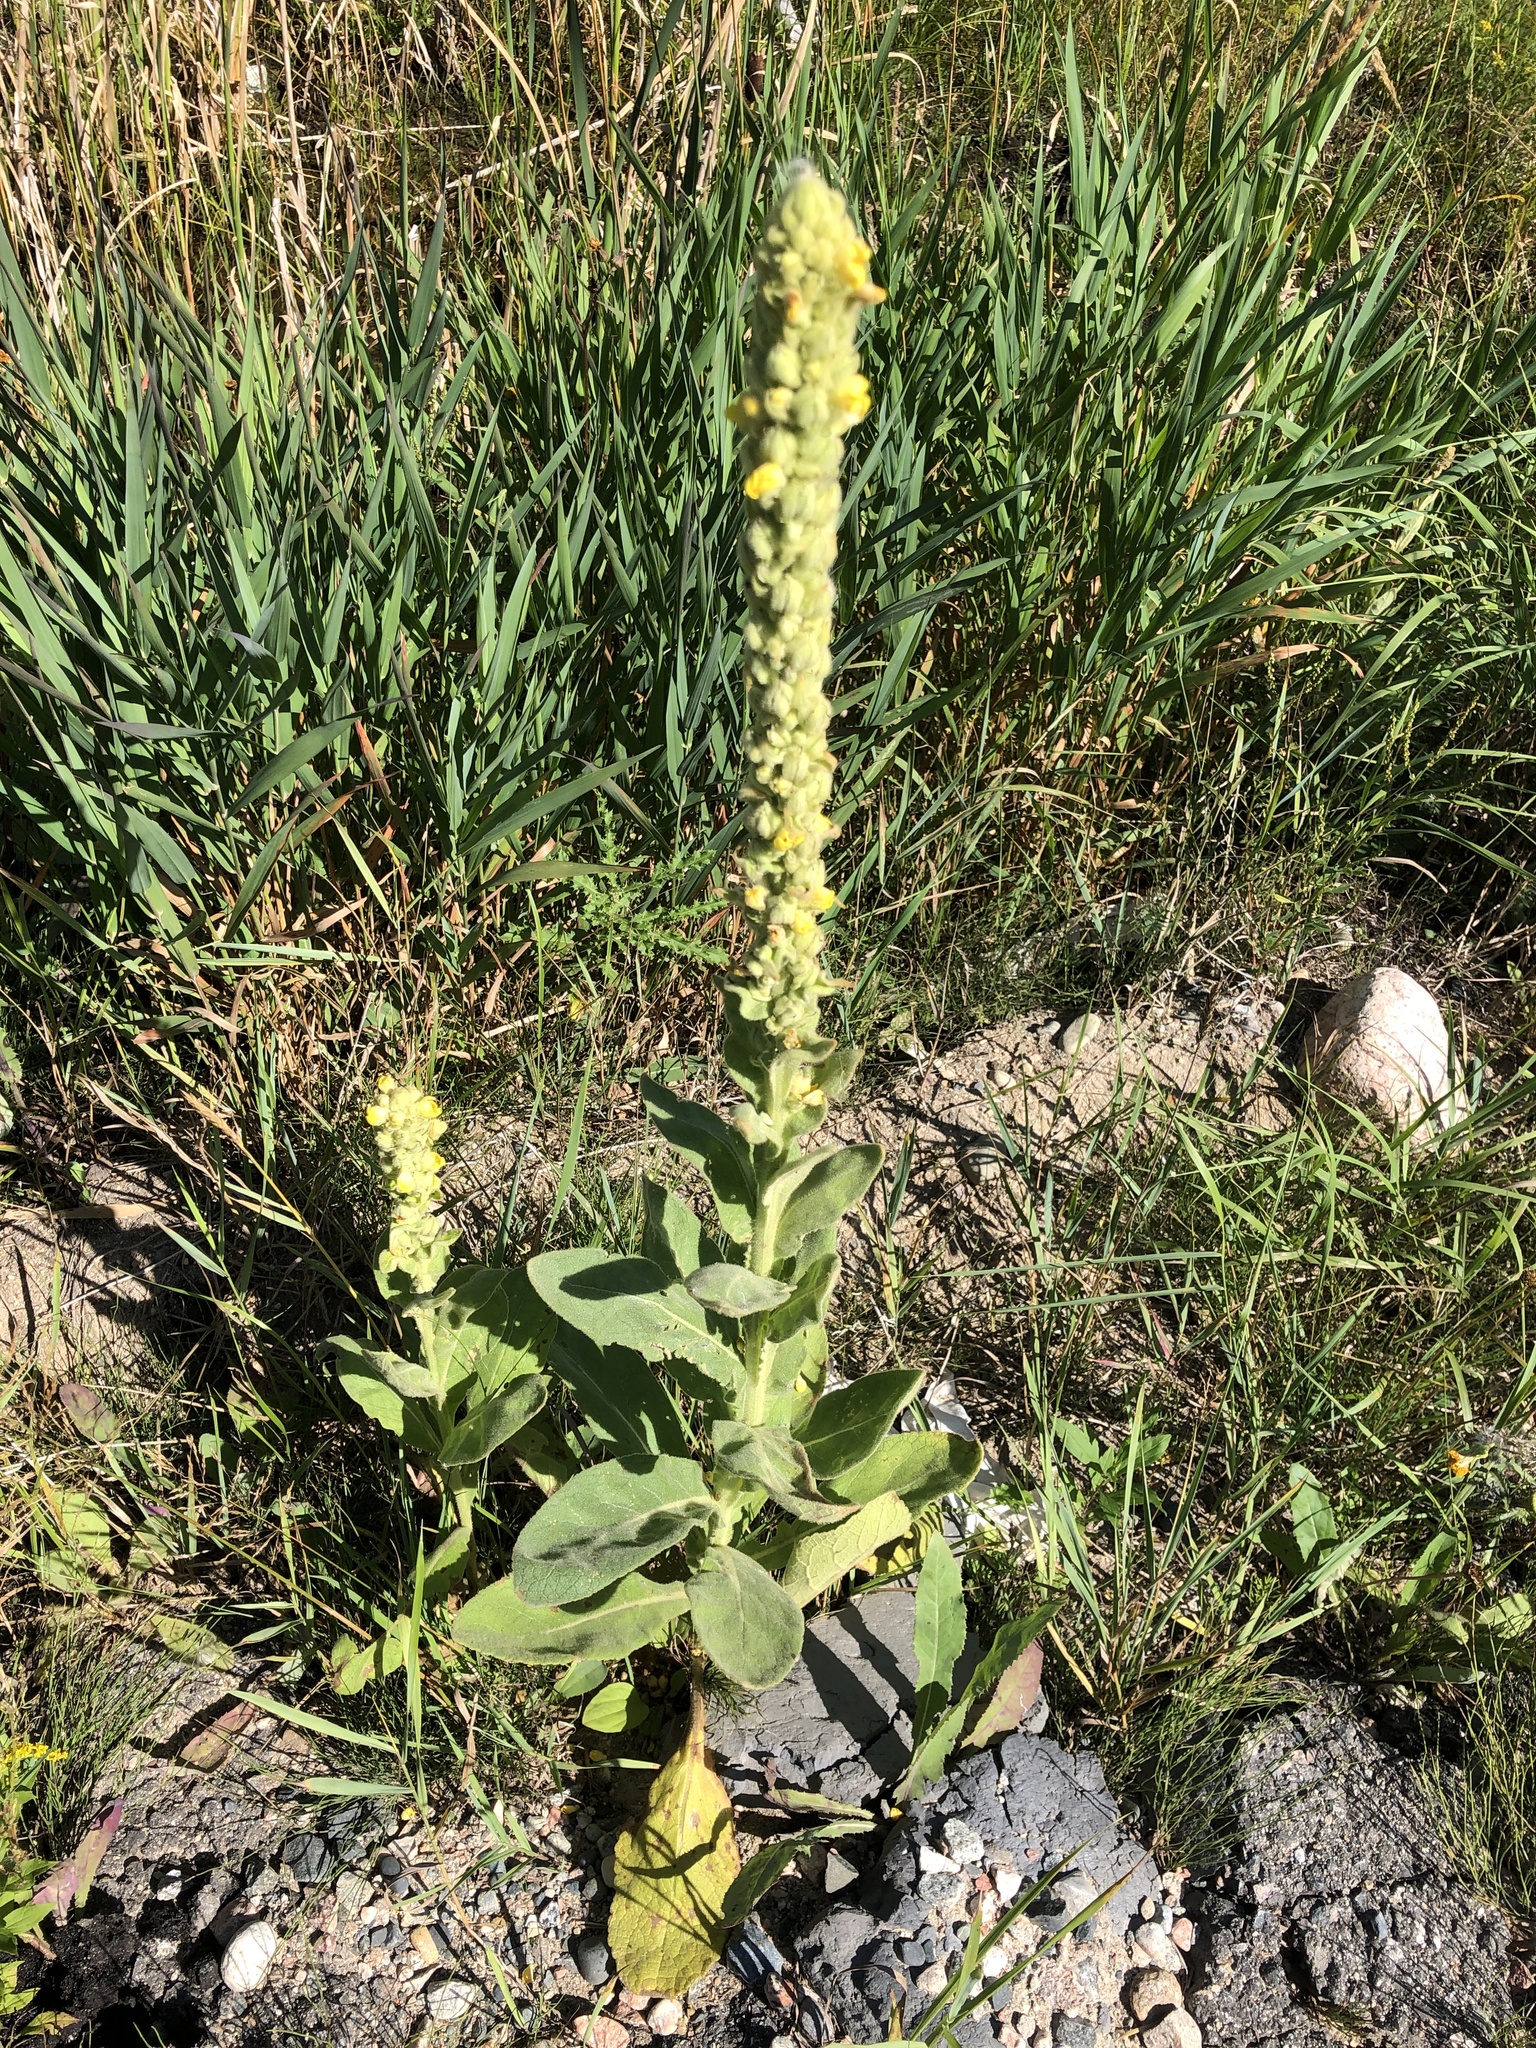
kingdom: Plantae
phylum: Tracheophyta
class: Magnoliopsida
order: Lamiales
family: Scrophulariaceae
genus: Verbascum
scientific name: Verbascum thapsus
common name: Common mullein
